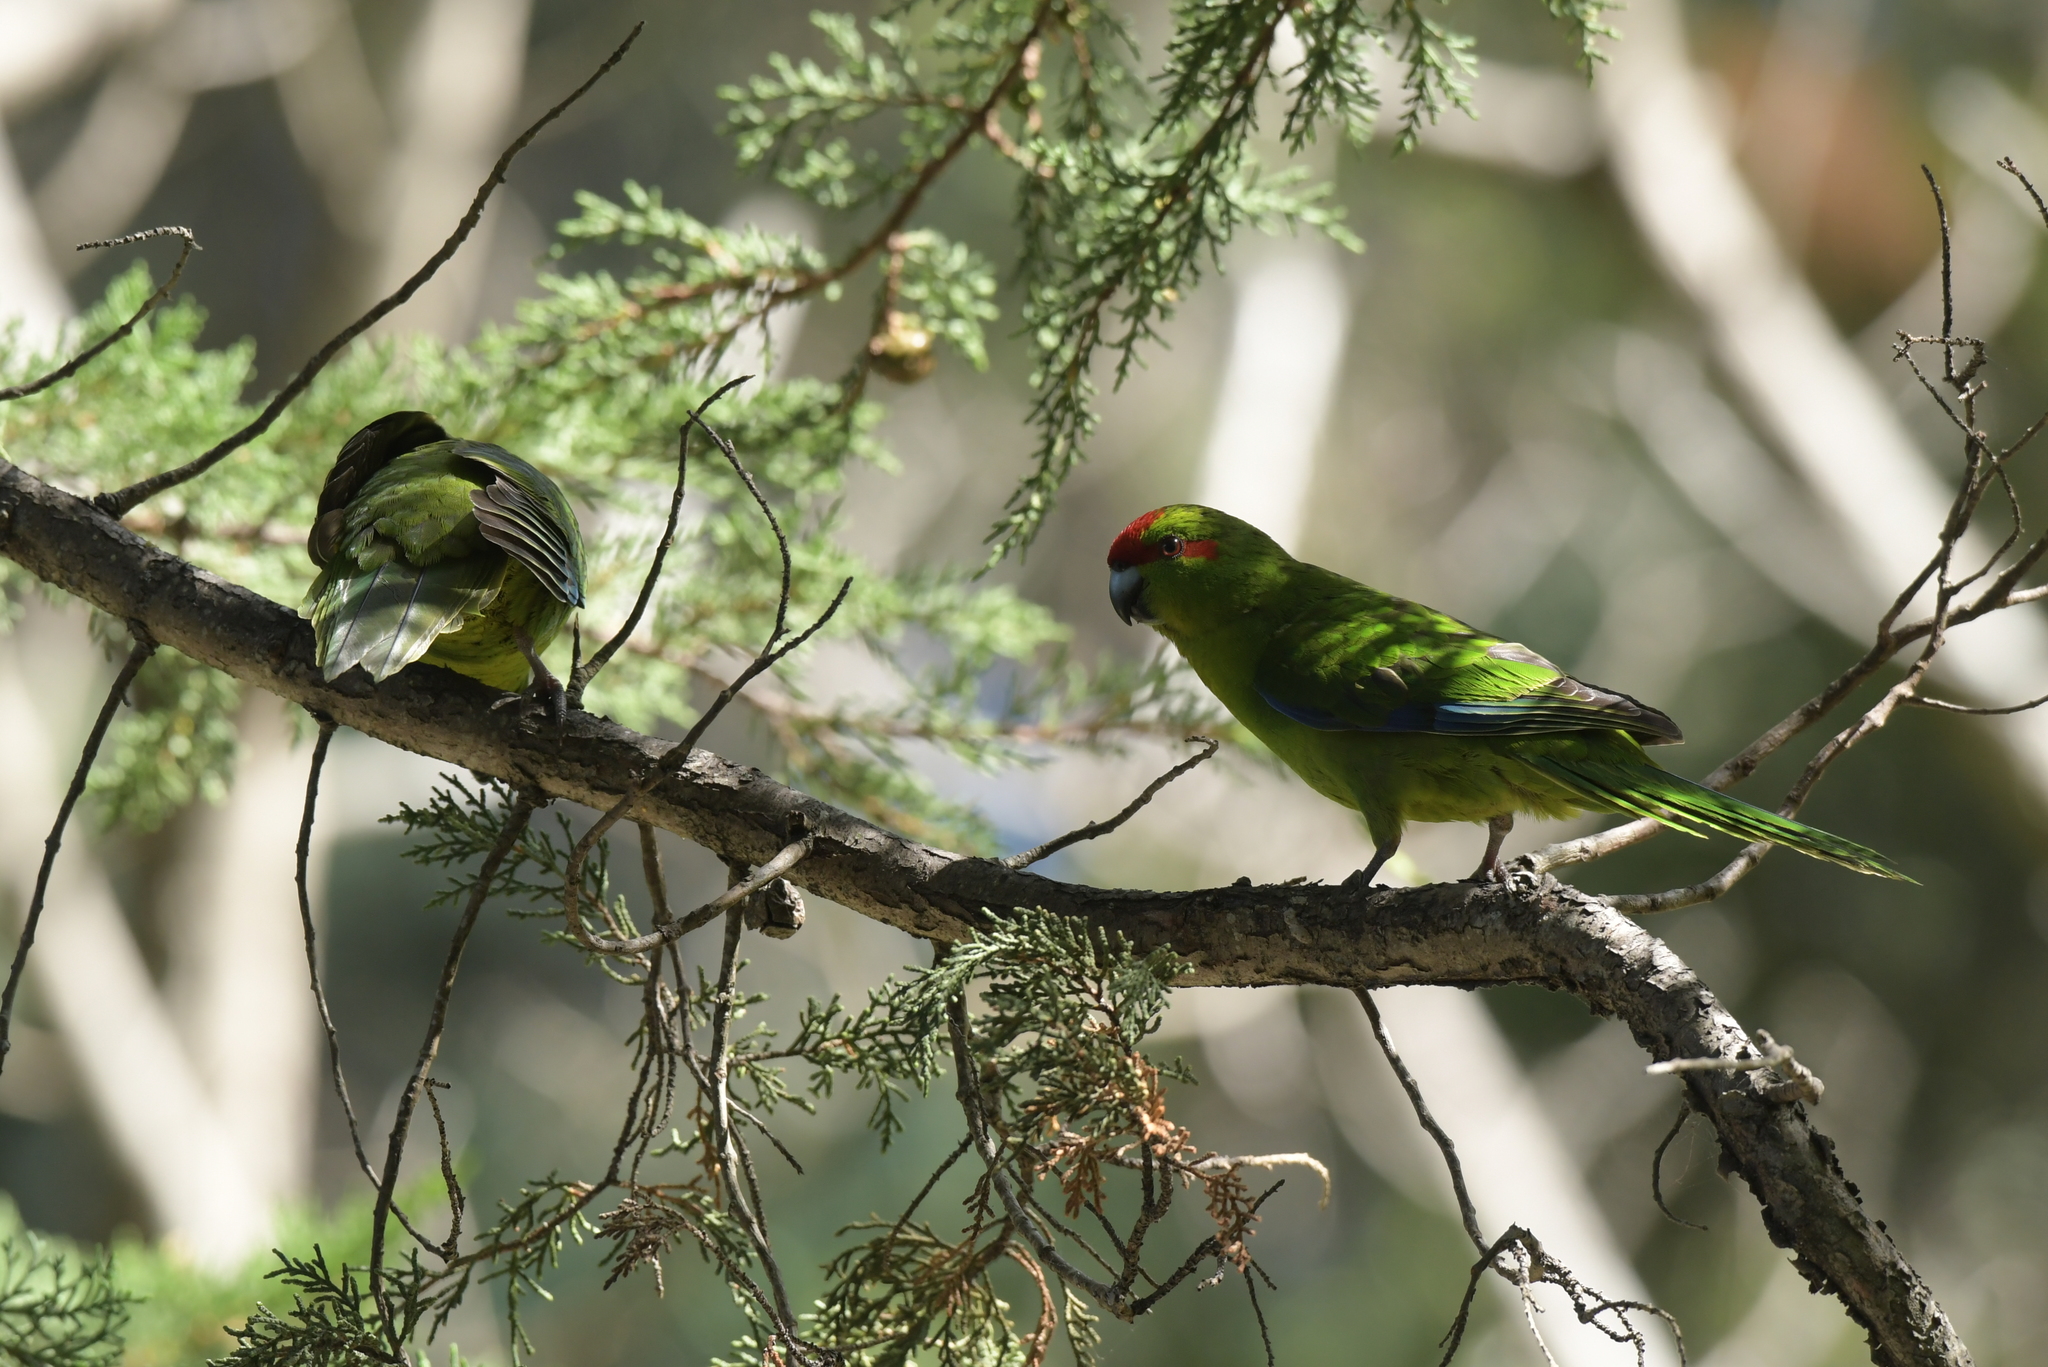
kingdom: Animalia
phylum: Chordata
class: Aves
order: Psittaciformes
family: Psittacidae
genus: Cyanoramphus
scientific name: Cyanoramphus novaezelandiae
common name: Red-fronted parakeet
